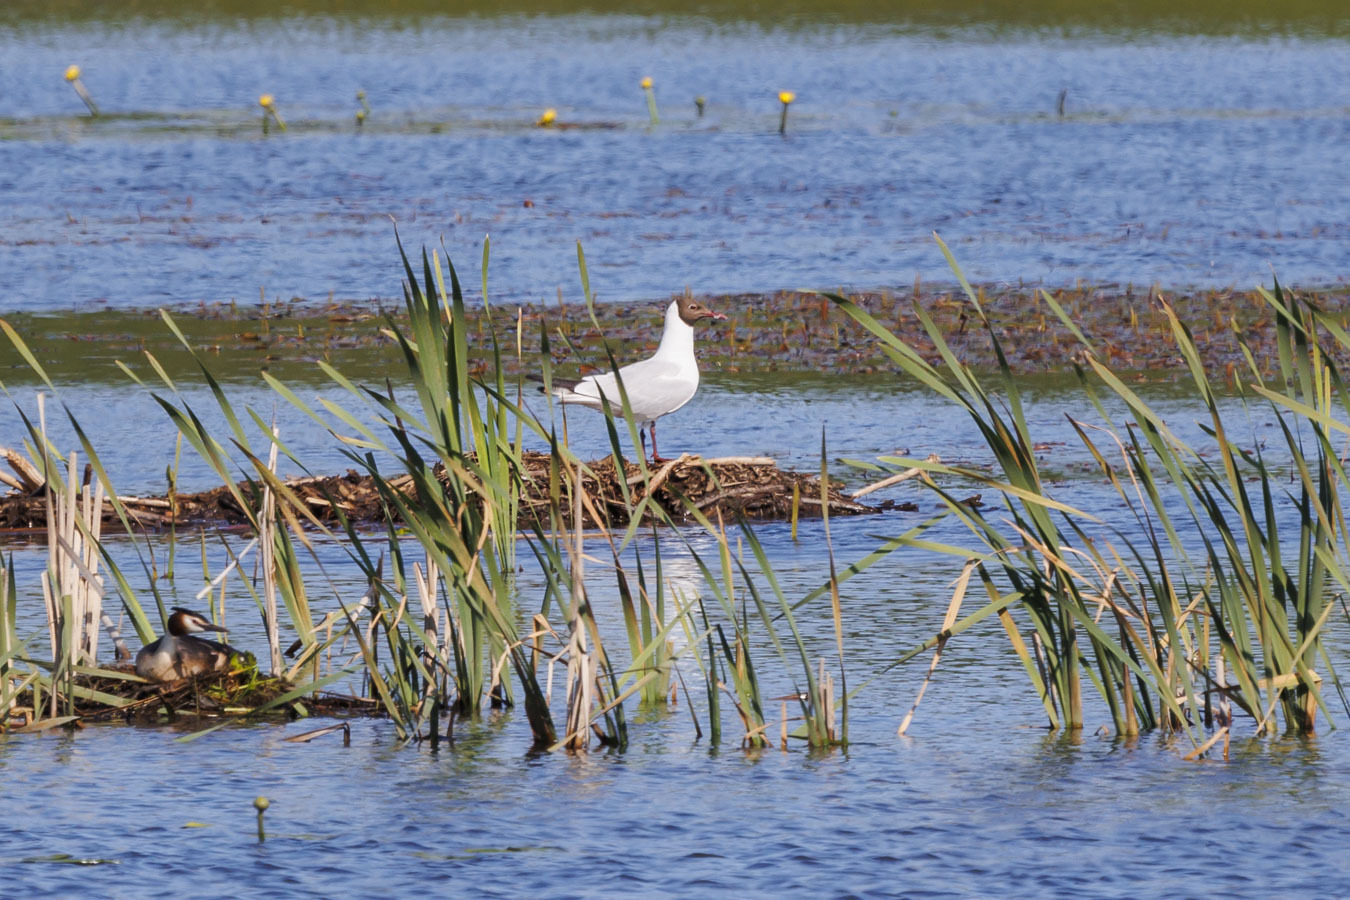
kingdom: Animalia
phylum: Chordata
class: Aves
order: Charadriiformes
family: Laridae
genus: Chroicocephalus
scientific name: Chroicocephalus ridibundus
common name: Black-headed gull
